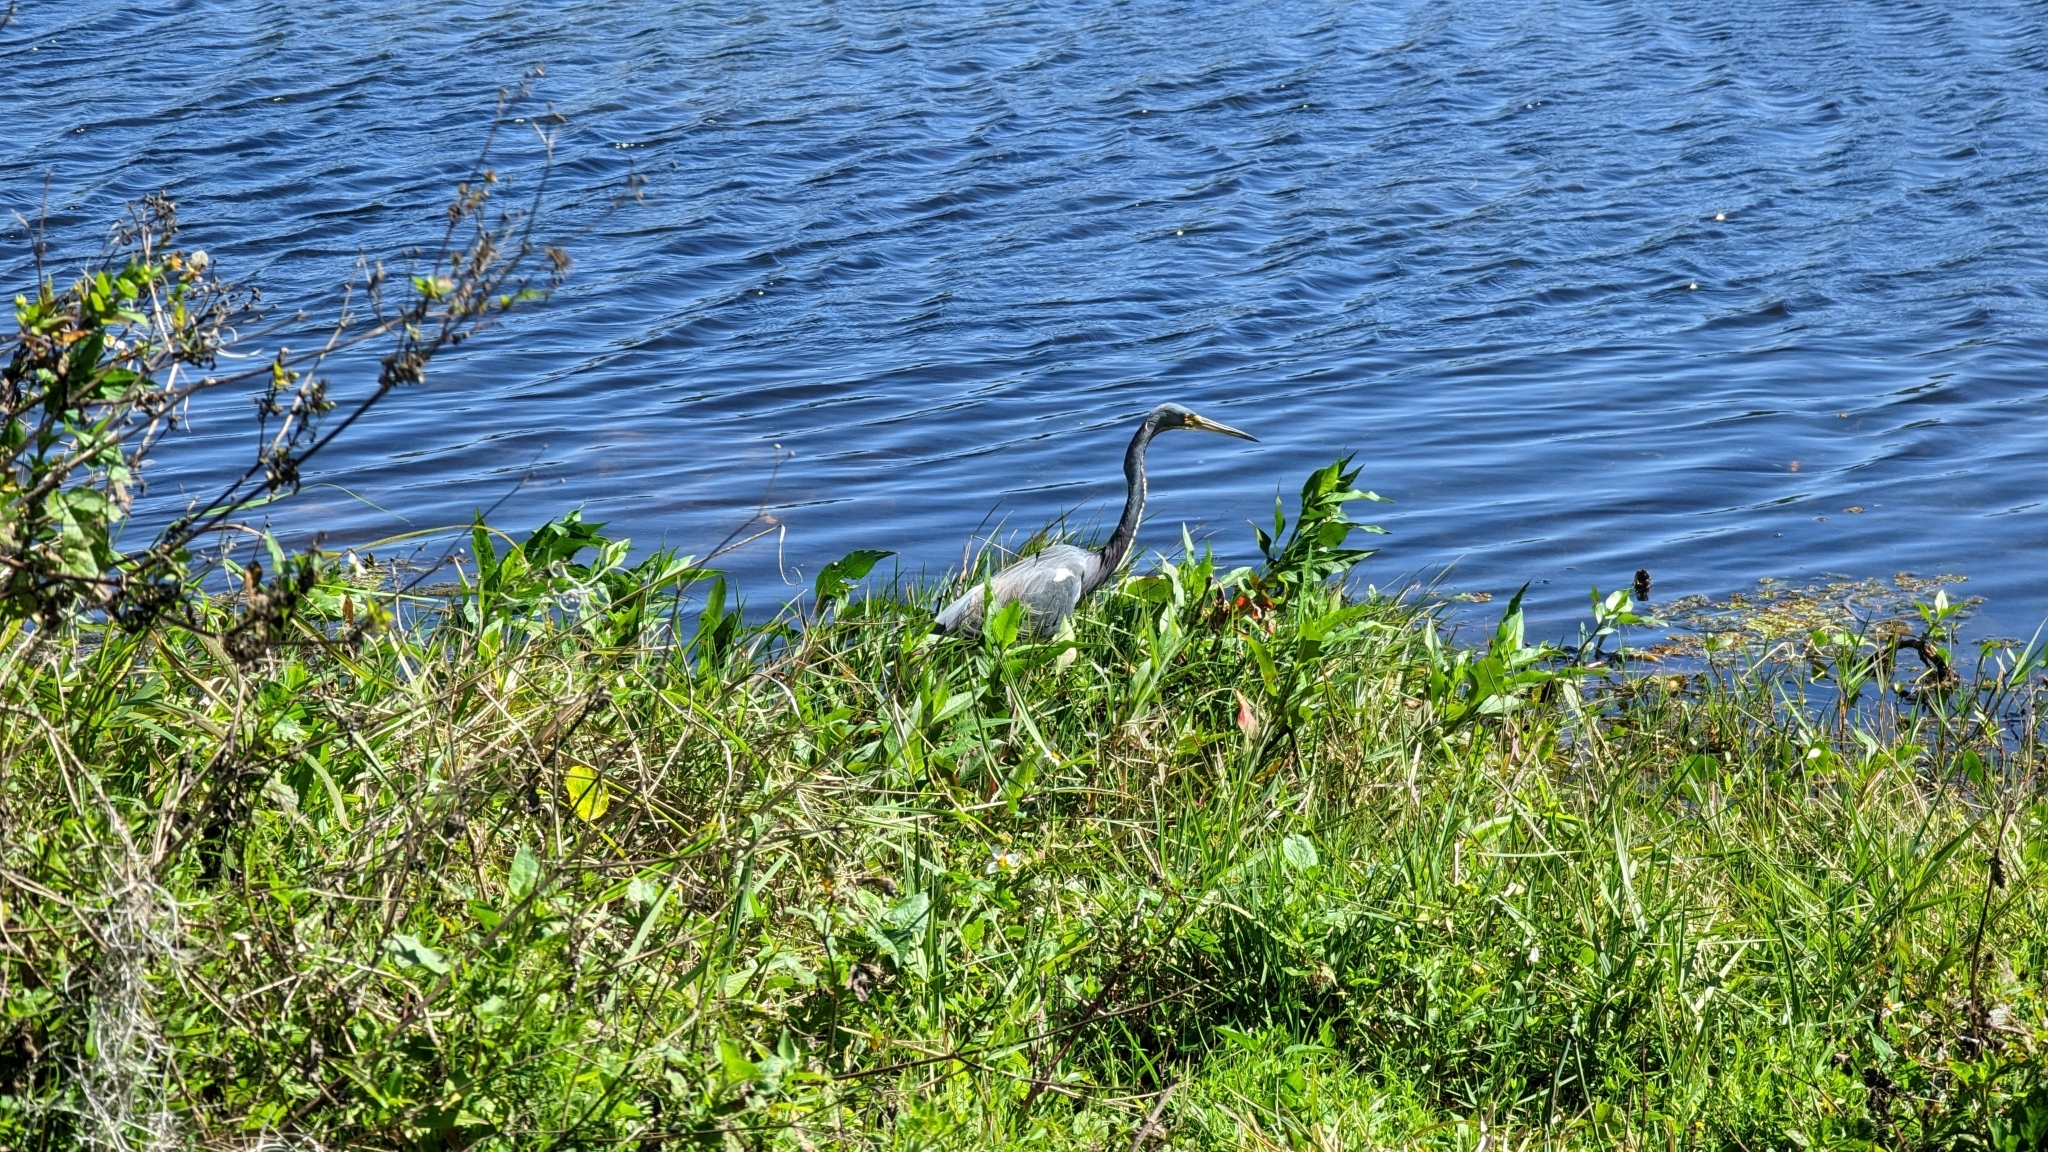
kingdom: Animalia
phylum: Chordata
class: Aves
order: Pelecaniformes
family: Ardeidae
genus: Egretta
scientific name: Egretta tricolor
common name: Tricolored heron
